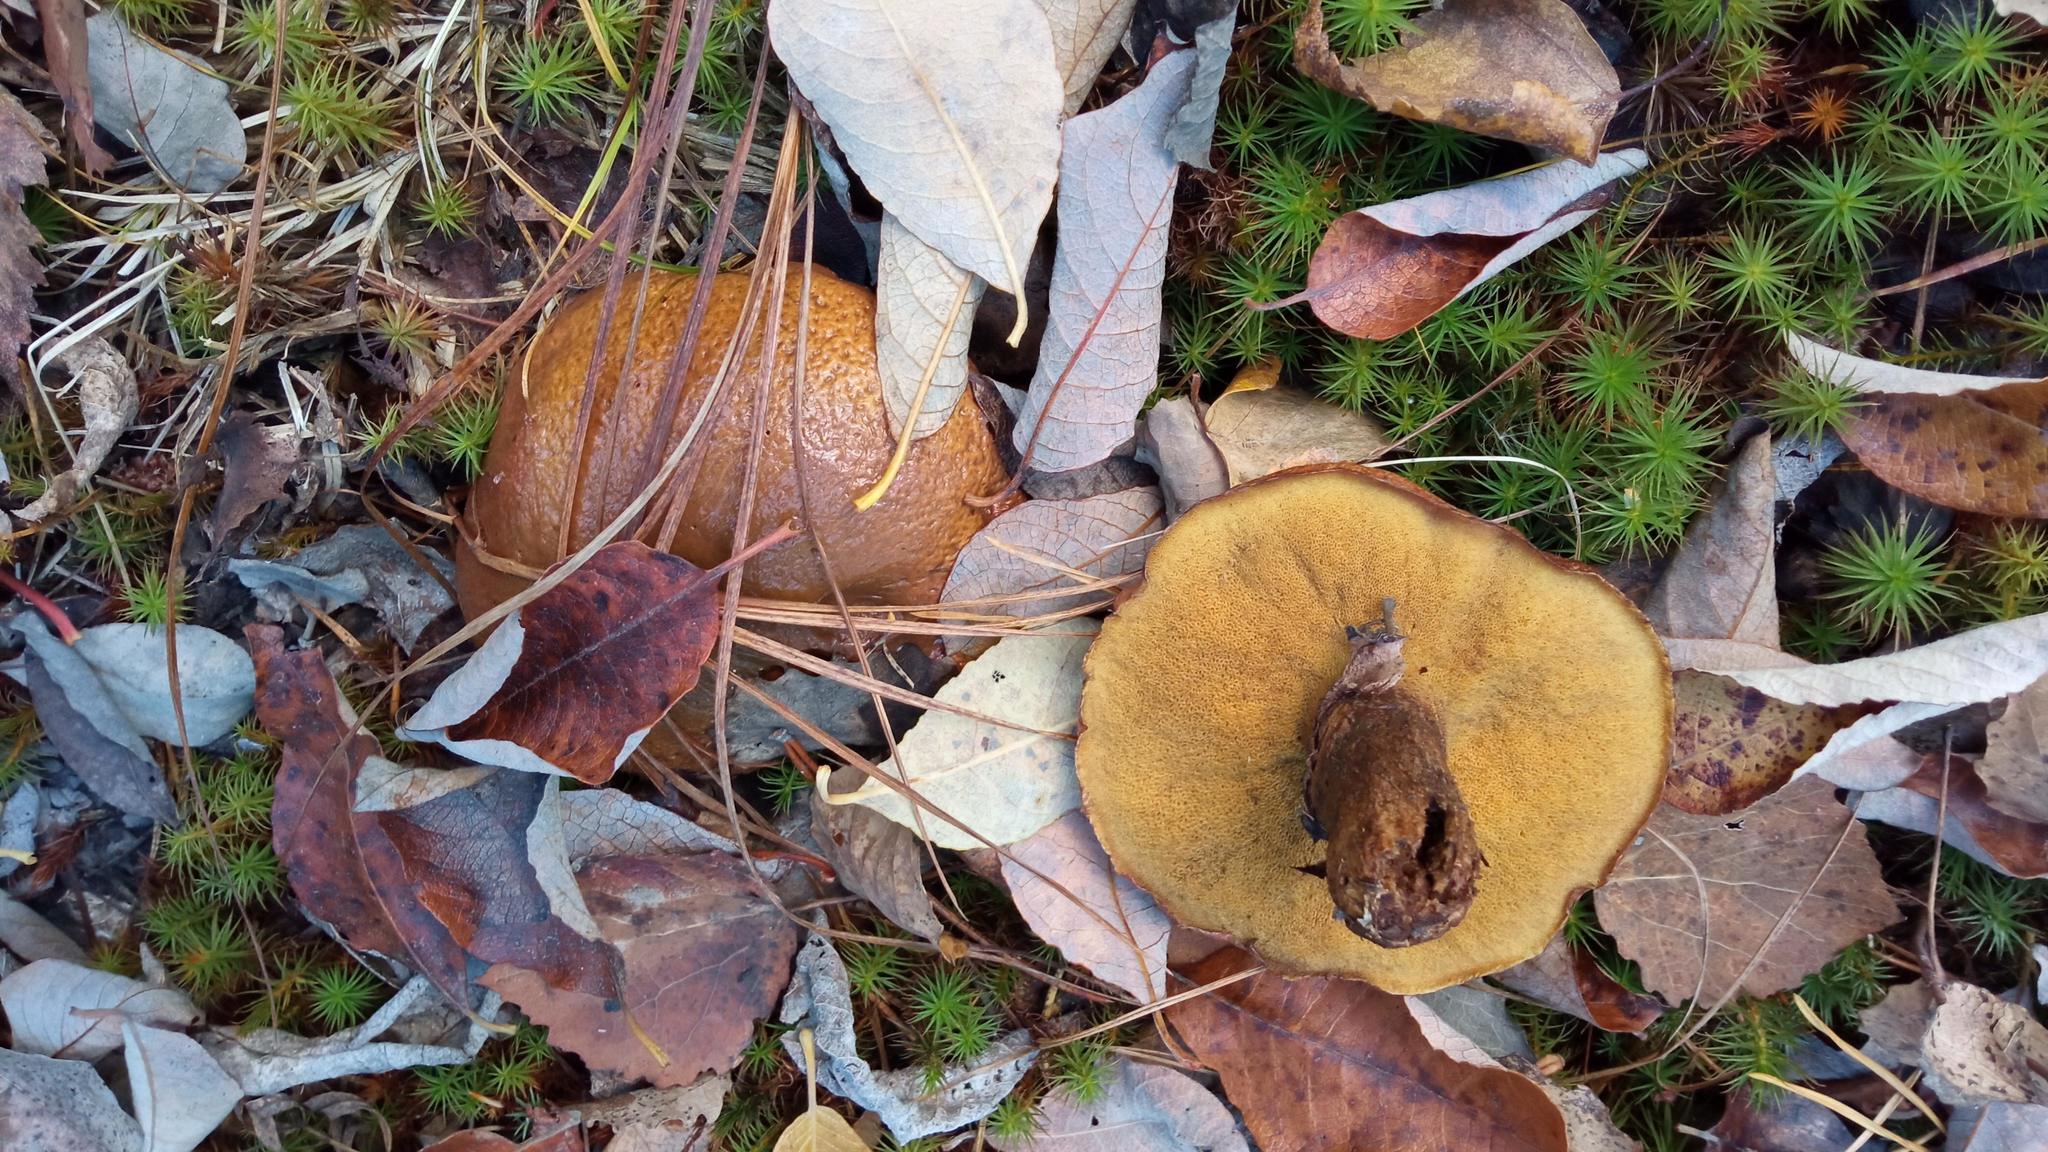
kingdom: Fungi
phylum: Basidiomycota
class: Agaricomycetes
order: Boletales
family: Suillaceae
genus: Suillus
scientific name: Suillus luteus
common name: Slippery jack
